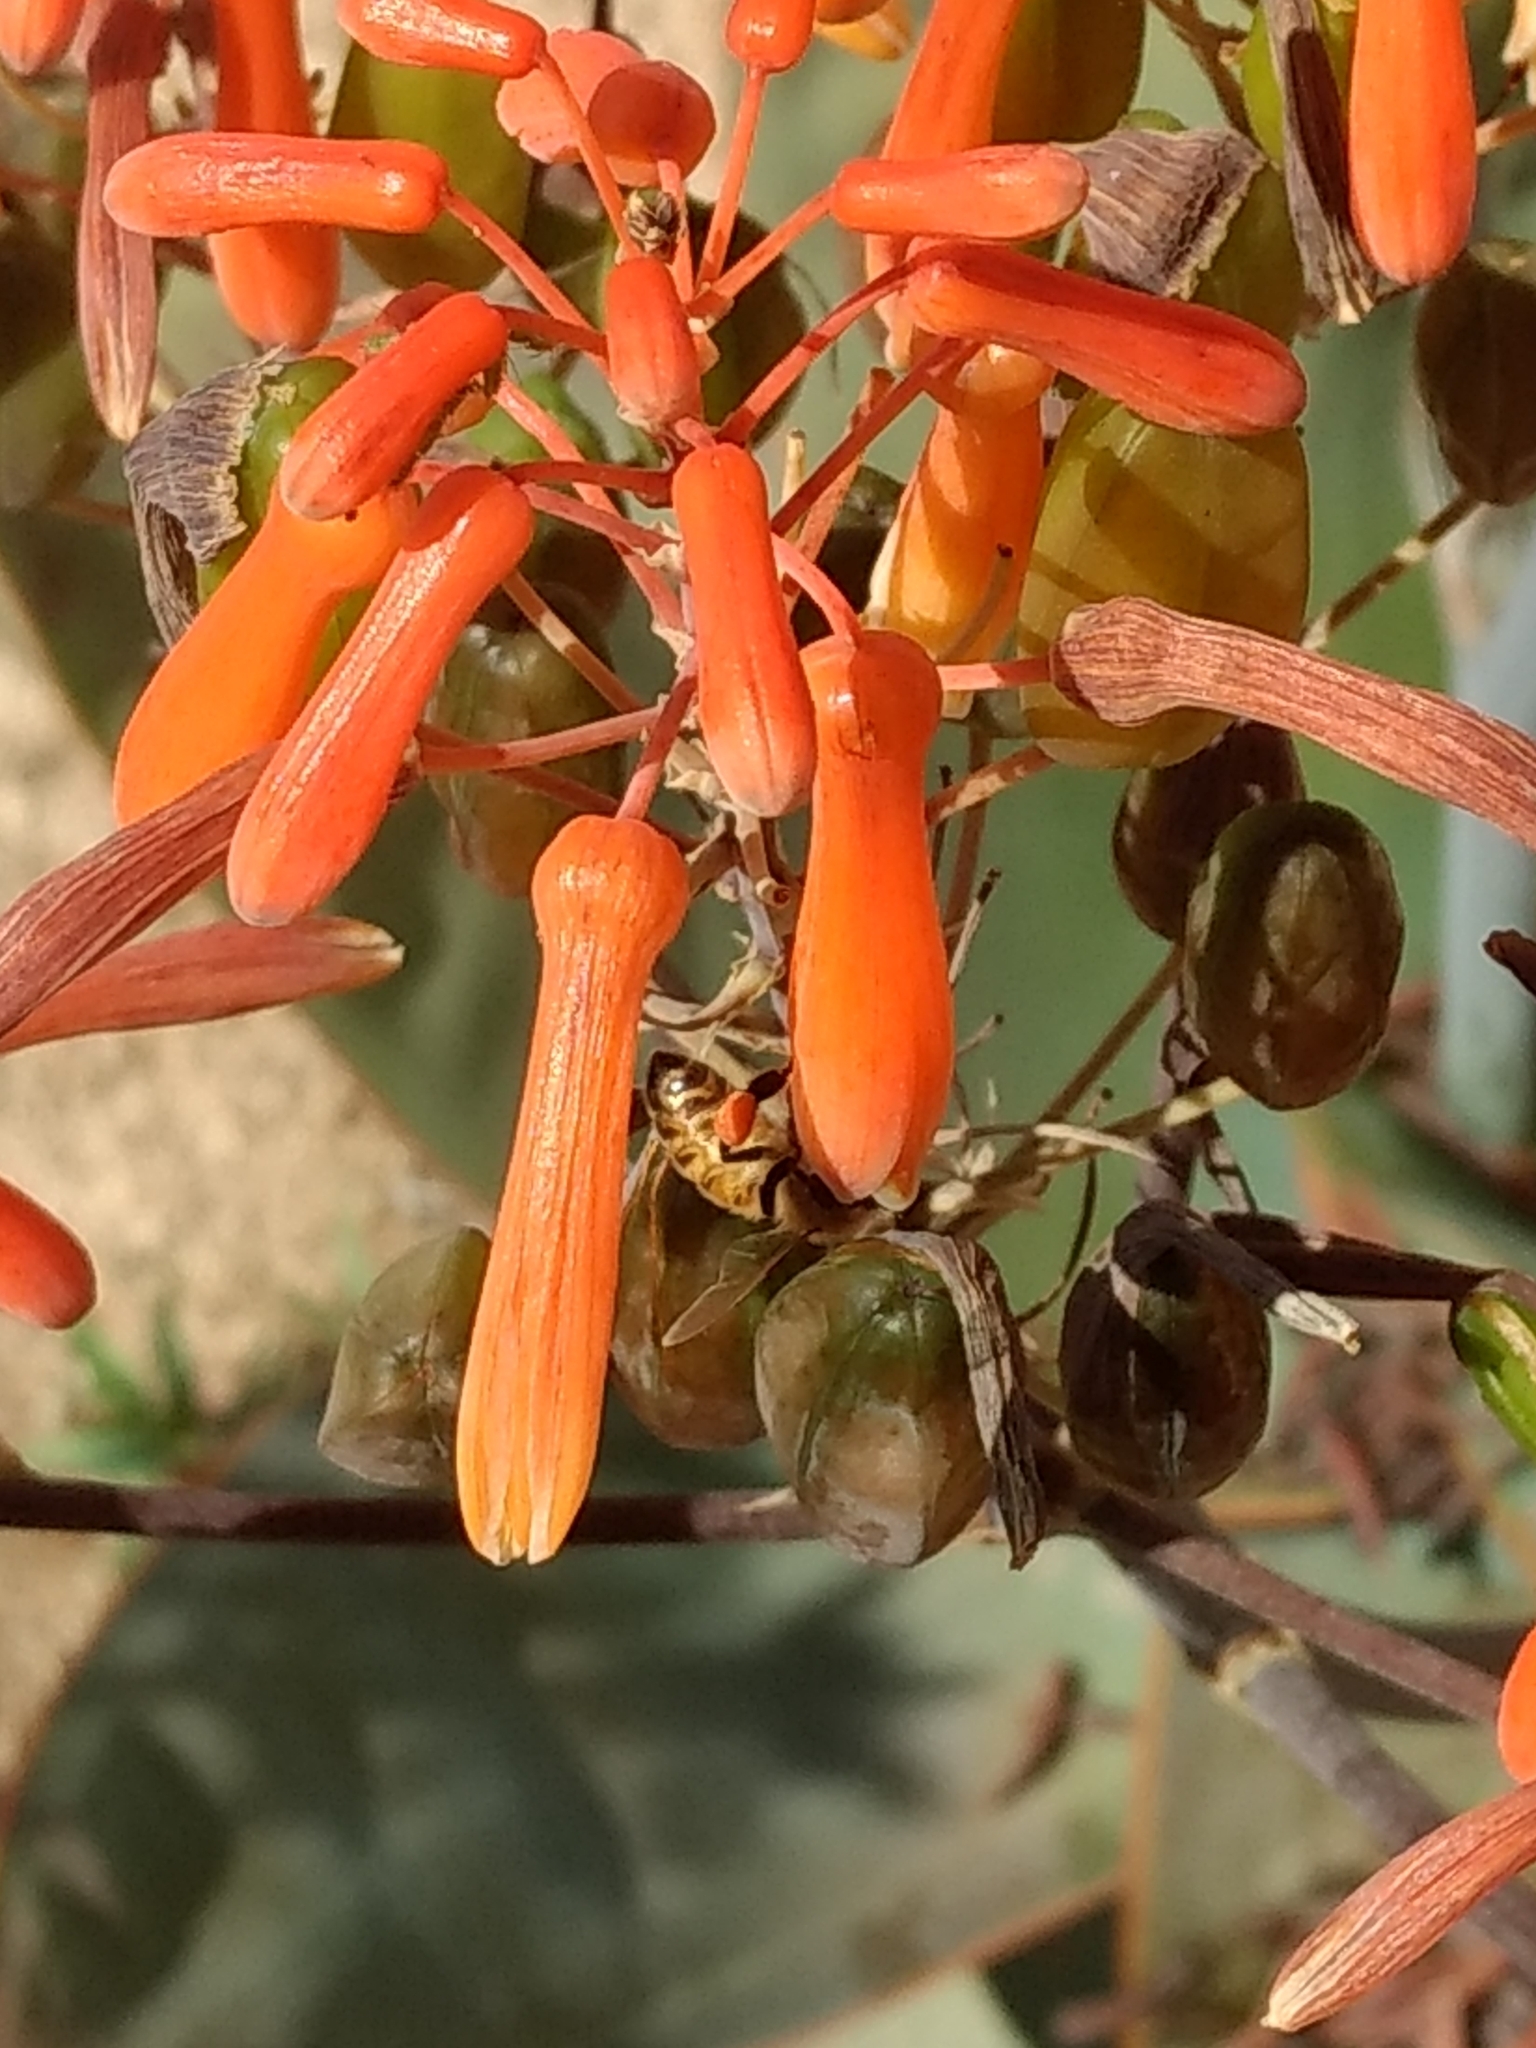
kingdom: Animalia
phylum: Arthropoda
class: Insecta
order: Hymenoptera
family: Apidae
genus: Apis
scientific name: Apis mellifera
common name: Honey bee
